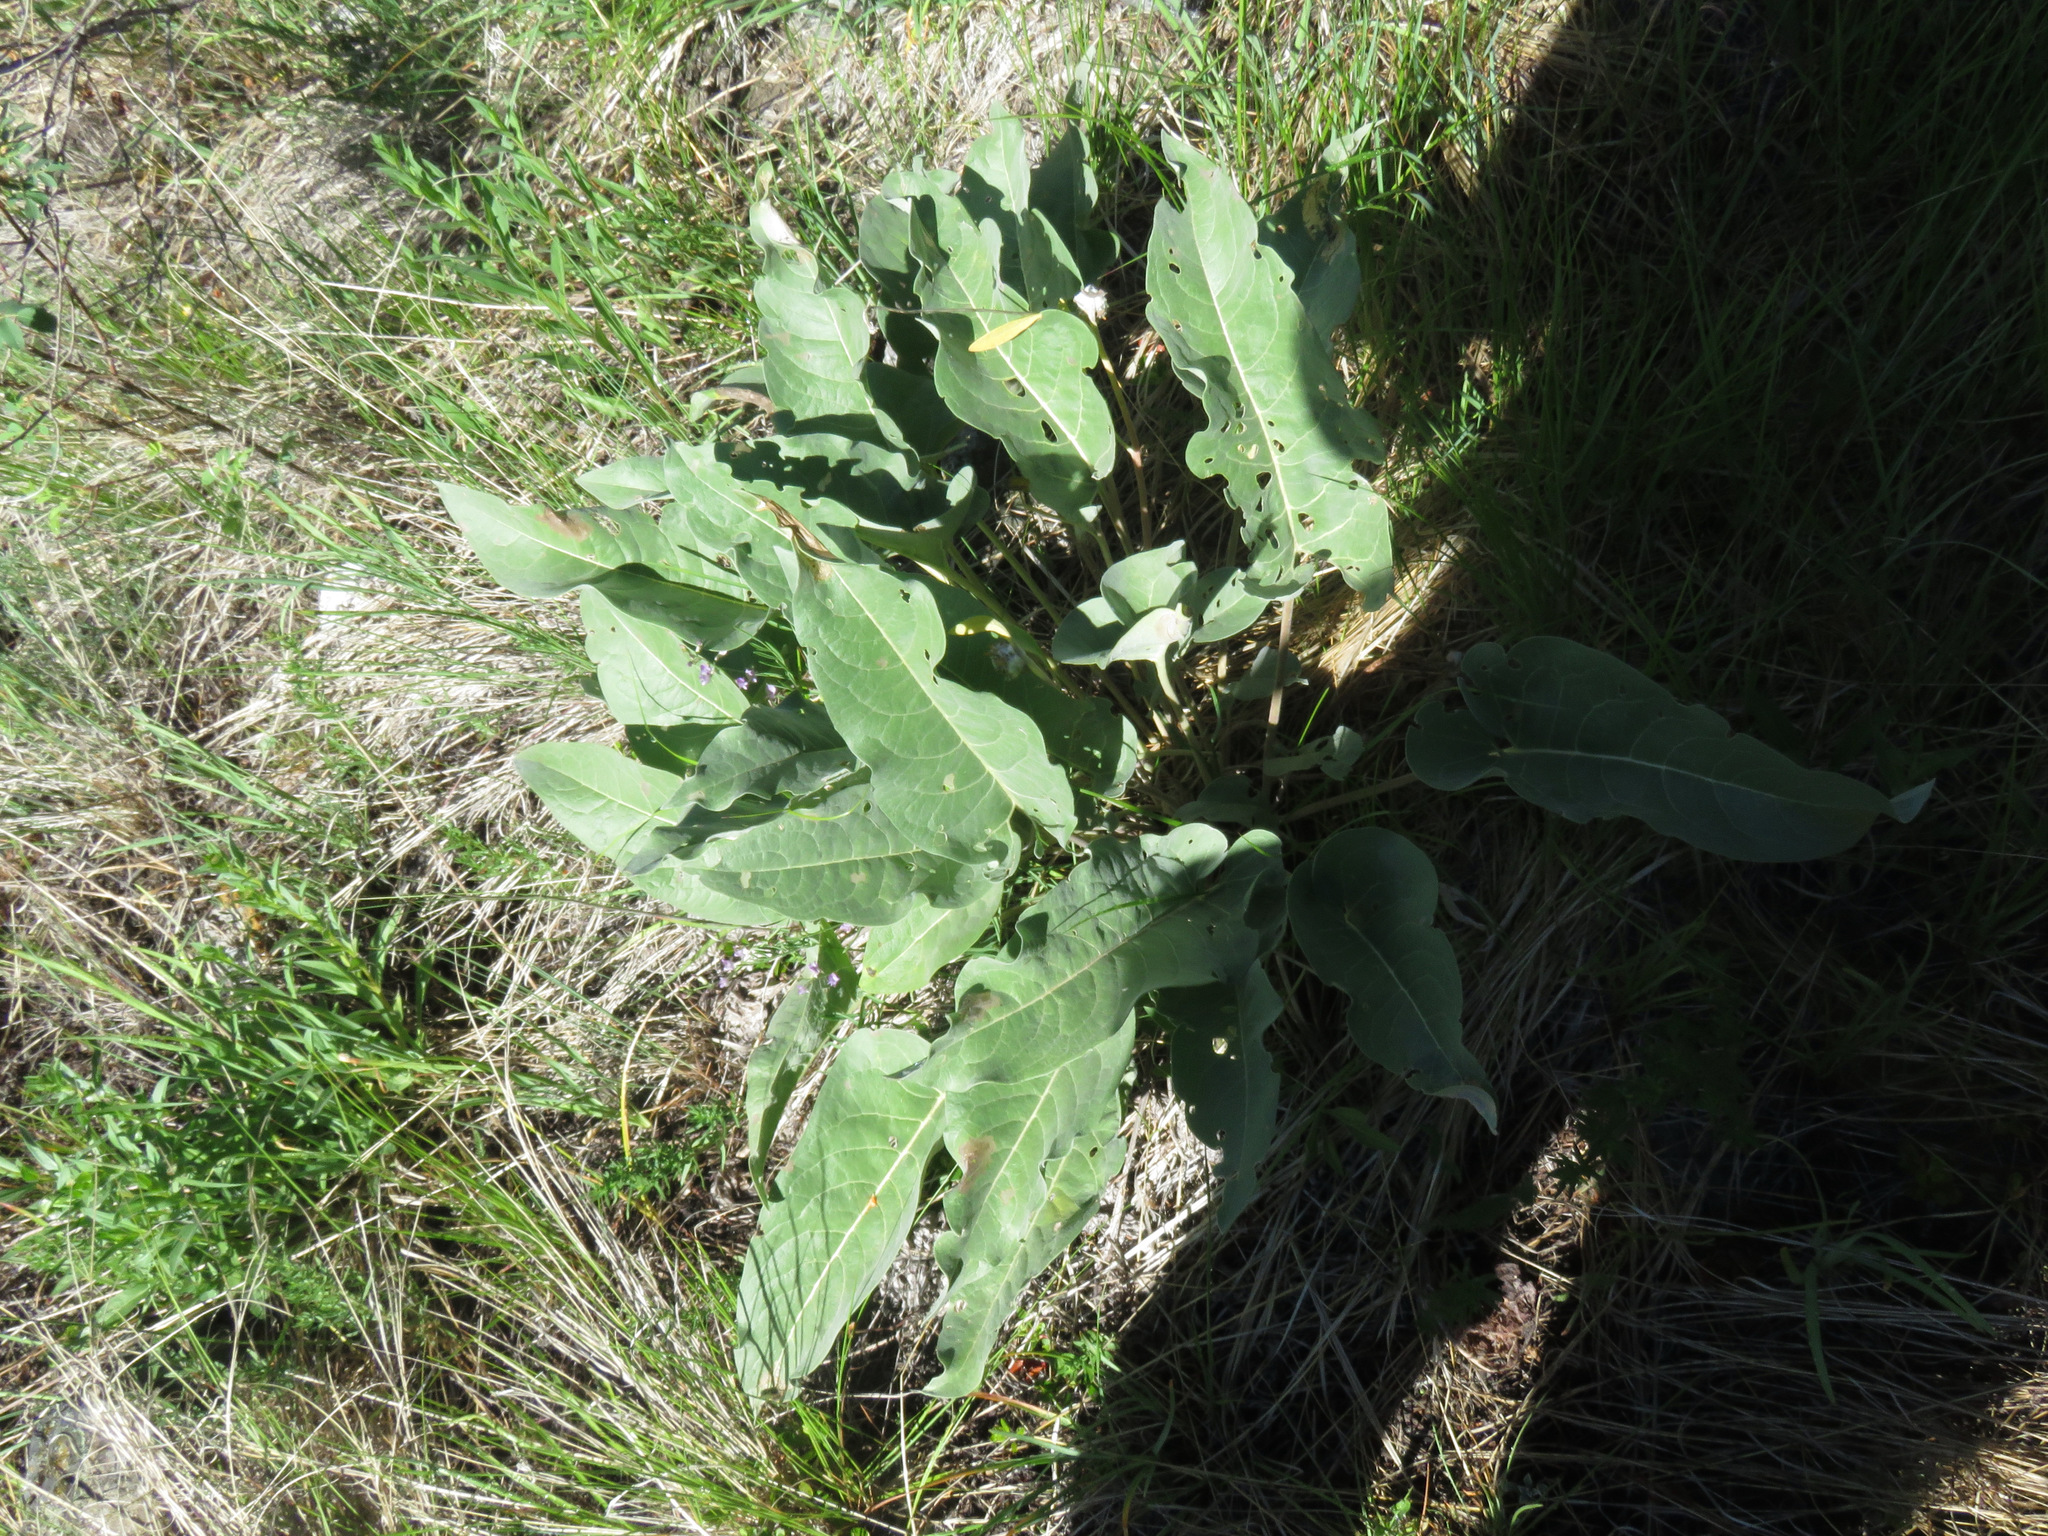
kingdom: Plantae
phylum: Tracheophyta
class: Magnoliopsida
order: Asterales
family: Asteraceae
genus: Wyethia
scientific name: Wyethia sagittata
